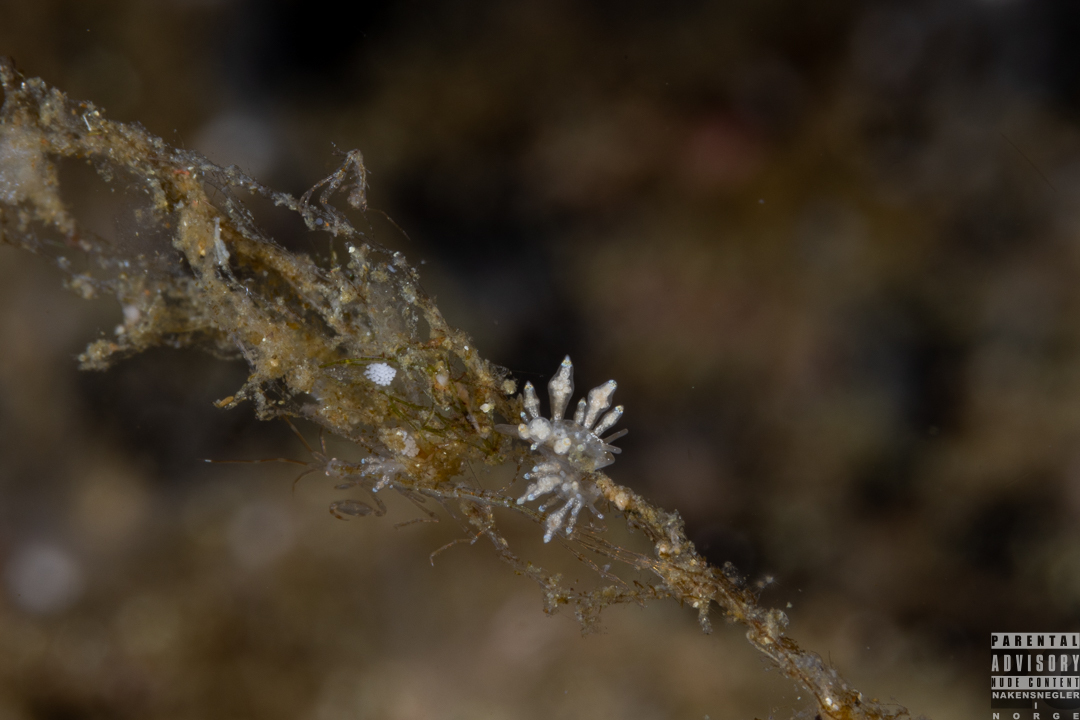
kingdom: Animalia
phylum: Mollusca
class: Gastropoda
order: Nudibranchia
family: Eubranchidae
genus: Eubranchus
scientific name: Eubranchus scintillans
